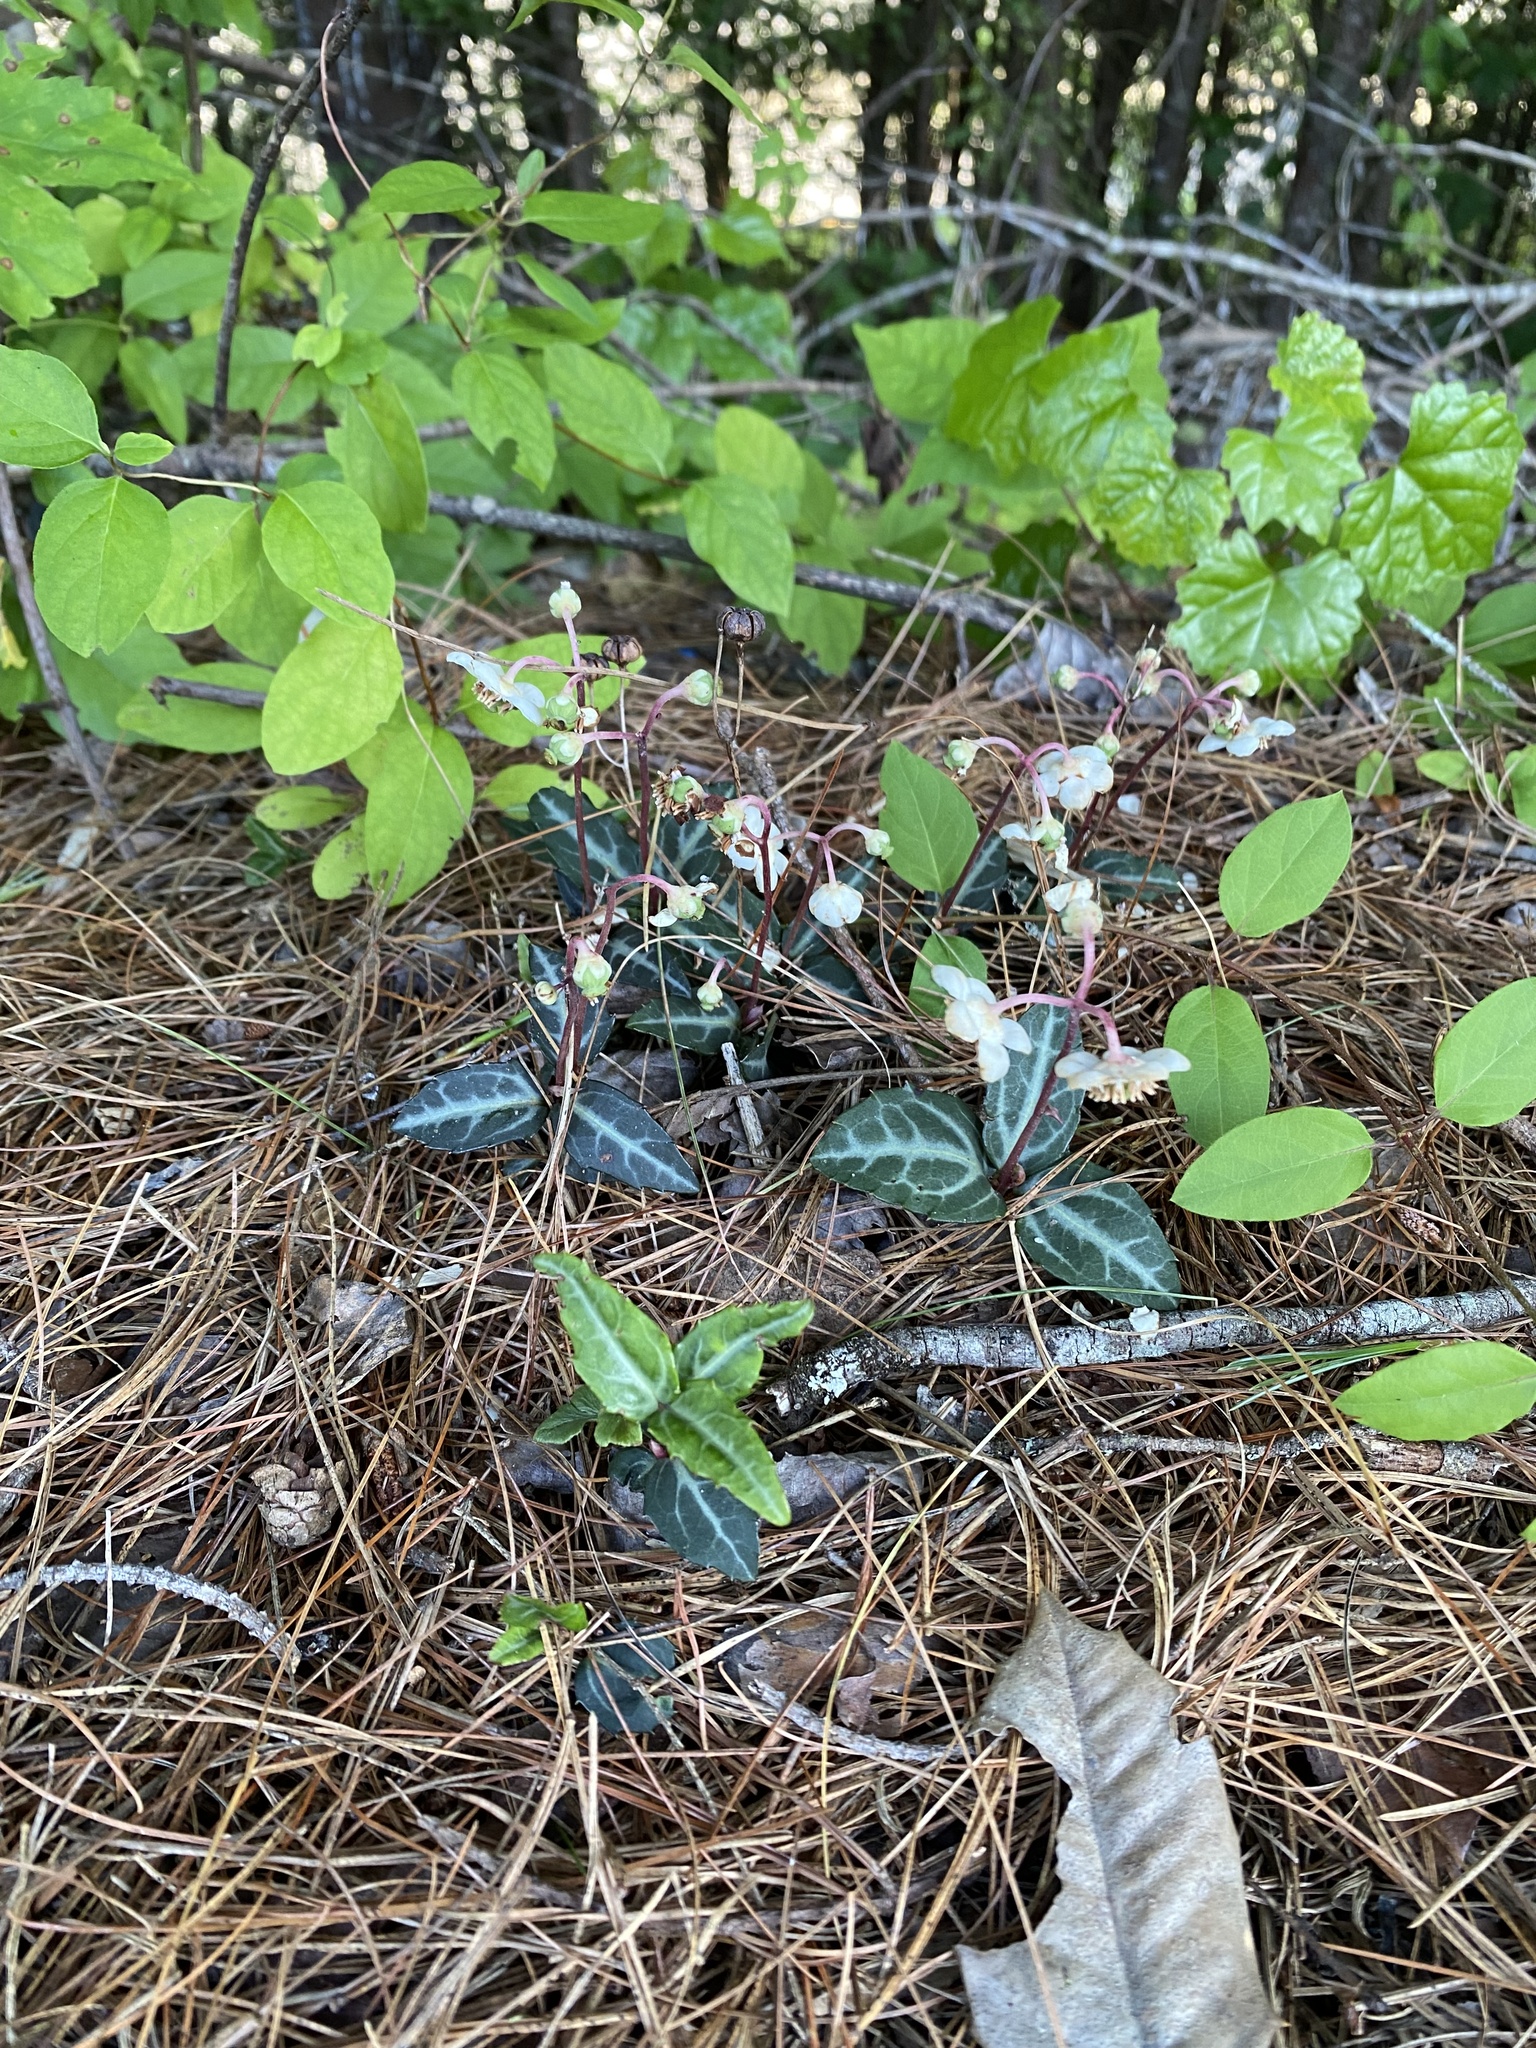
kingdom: Plantae
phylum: Tracheophyta
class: Magnoliopsida
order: Ericales
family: Ericaceae
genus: Chimaphila
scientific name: Chimaphila maculata
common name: Spotted pipsissewa
